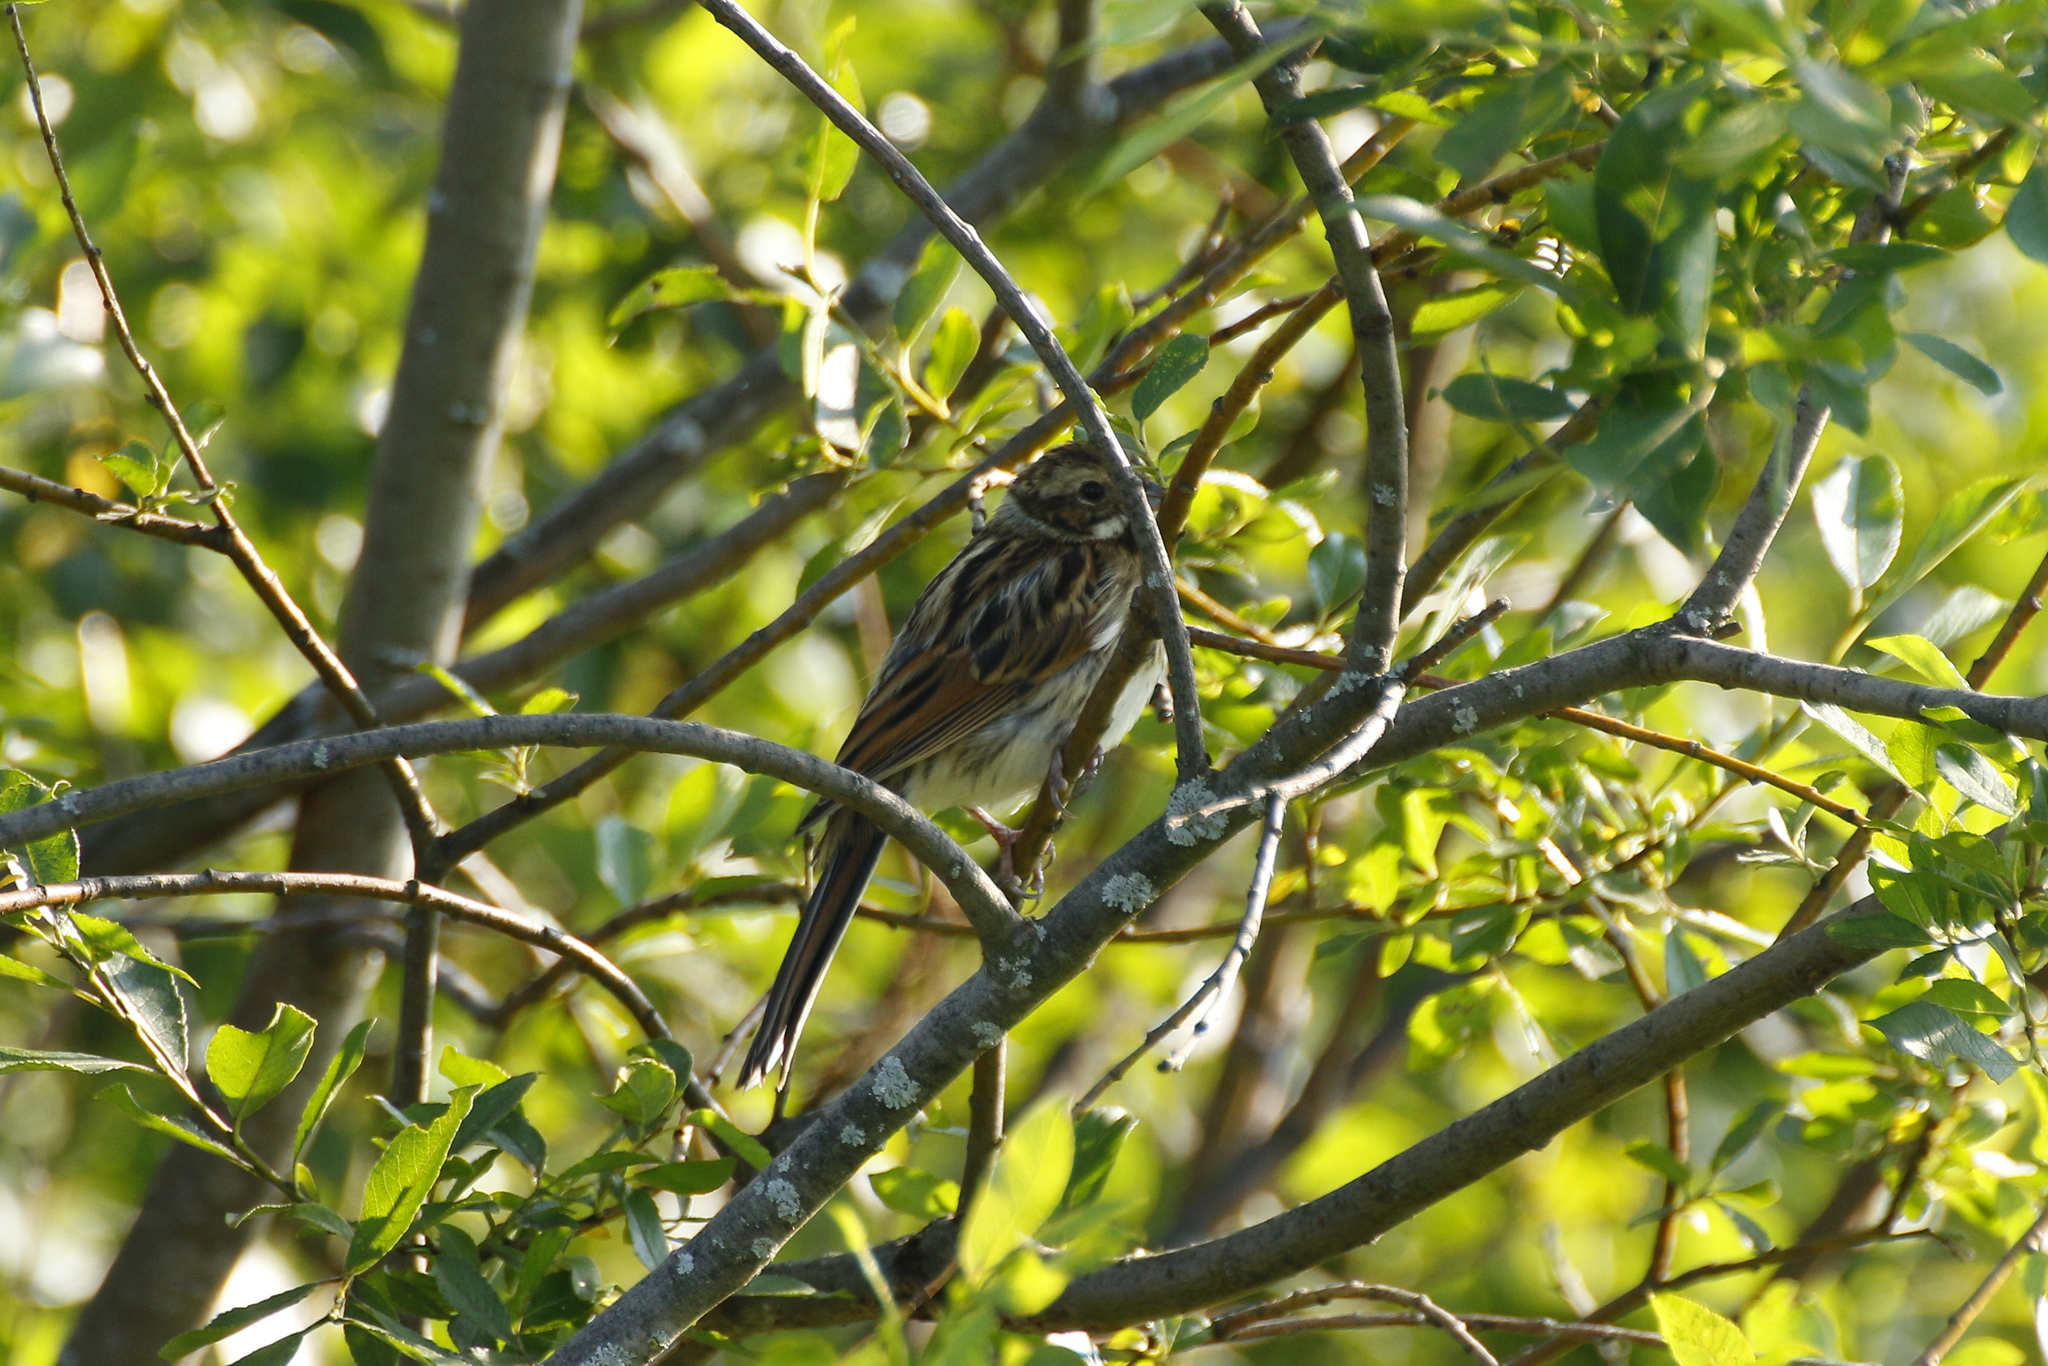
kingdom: Animalia
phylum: Chordata
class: Aves
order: Passeriformes
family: Emberizidae
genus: Emberiza
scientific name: Emberiza schoeniclus
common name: Reed bunting
